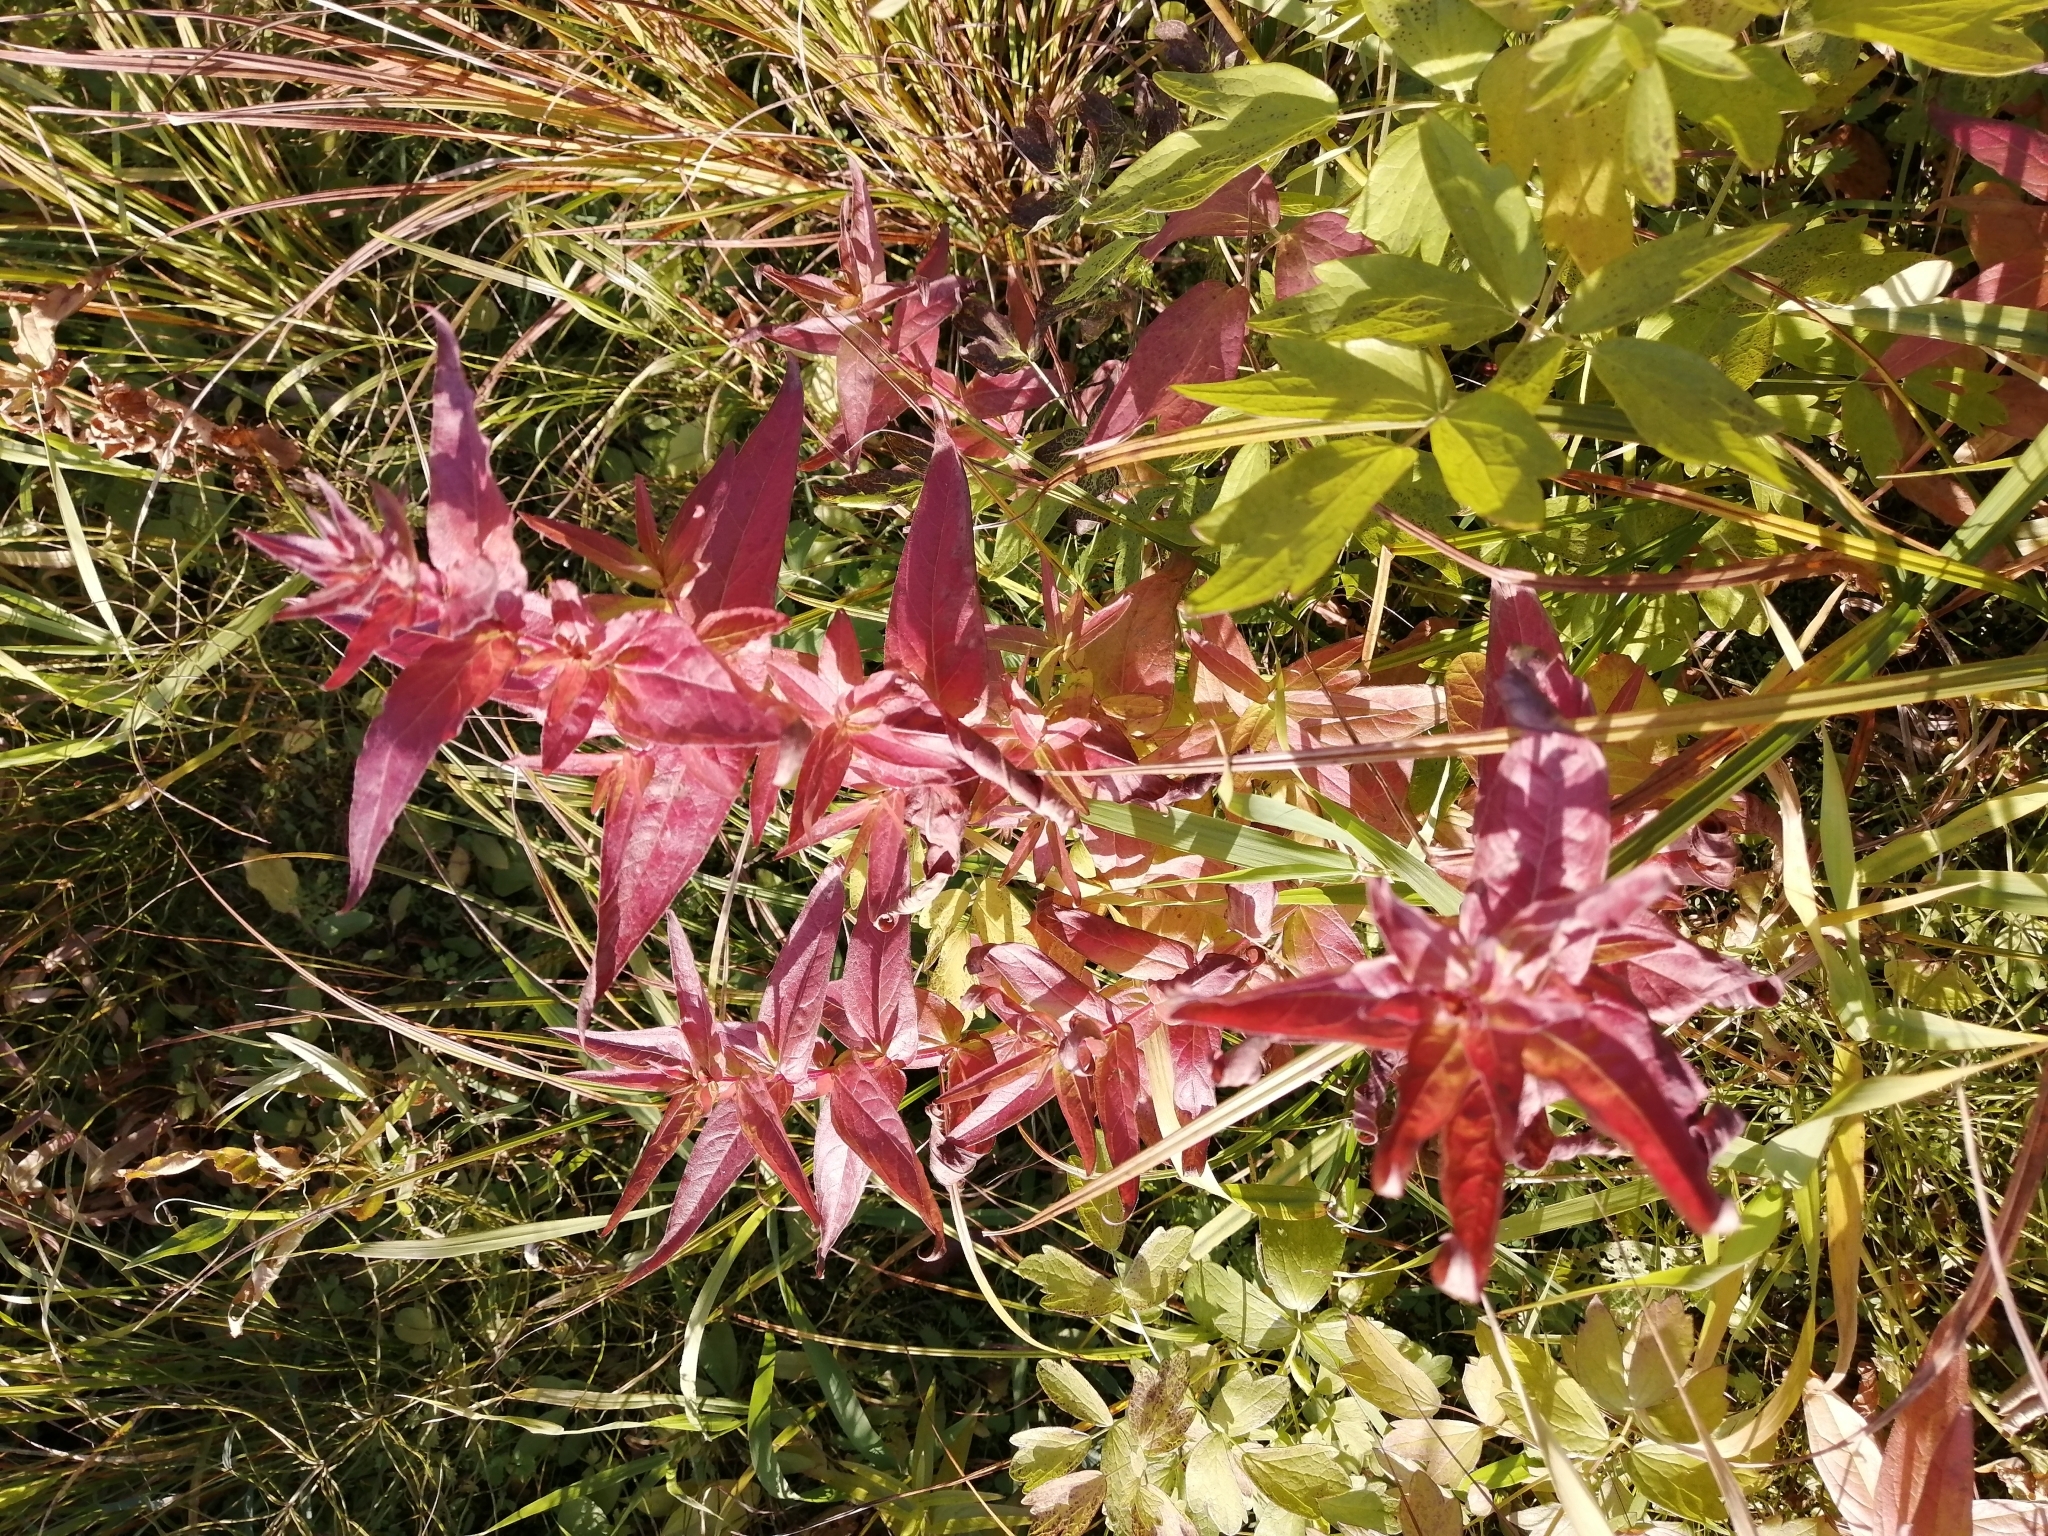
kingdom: Plantae
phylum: Tracheophyta
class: Magnoliopsida
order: Myrtales
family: Lythraceae
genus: Lythrum
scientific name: Lythrum salicaria
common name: Purple loosestrife
